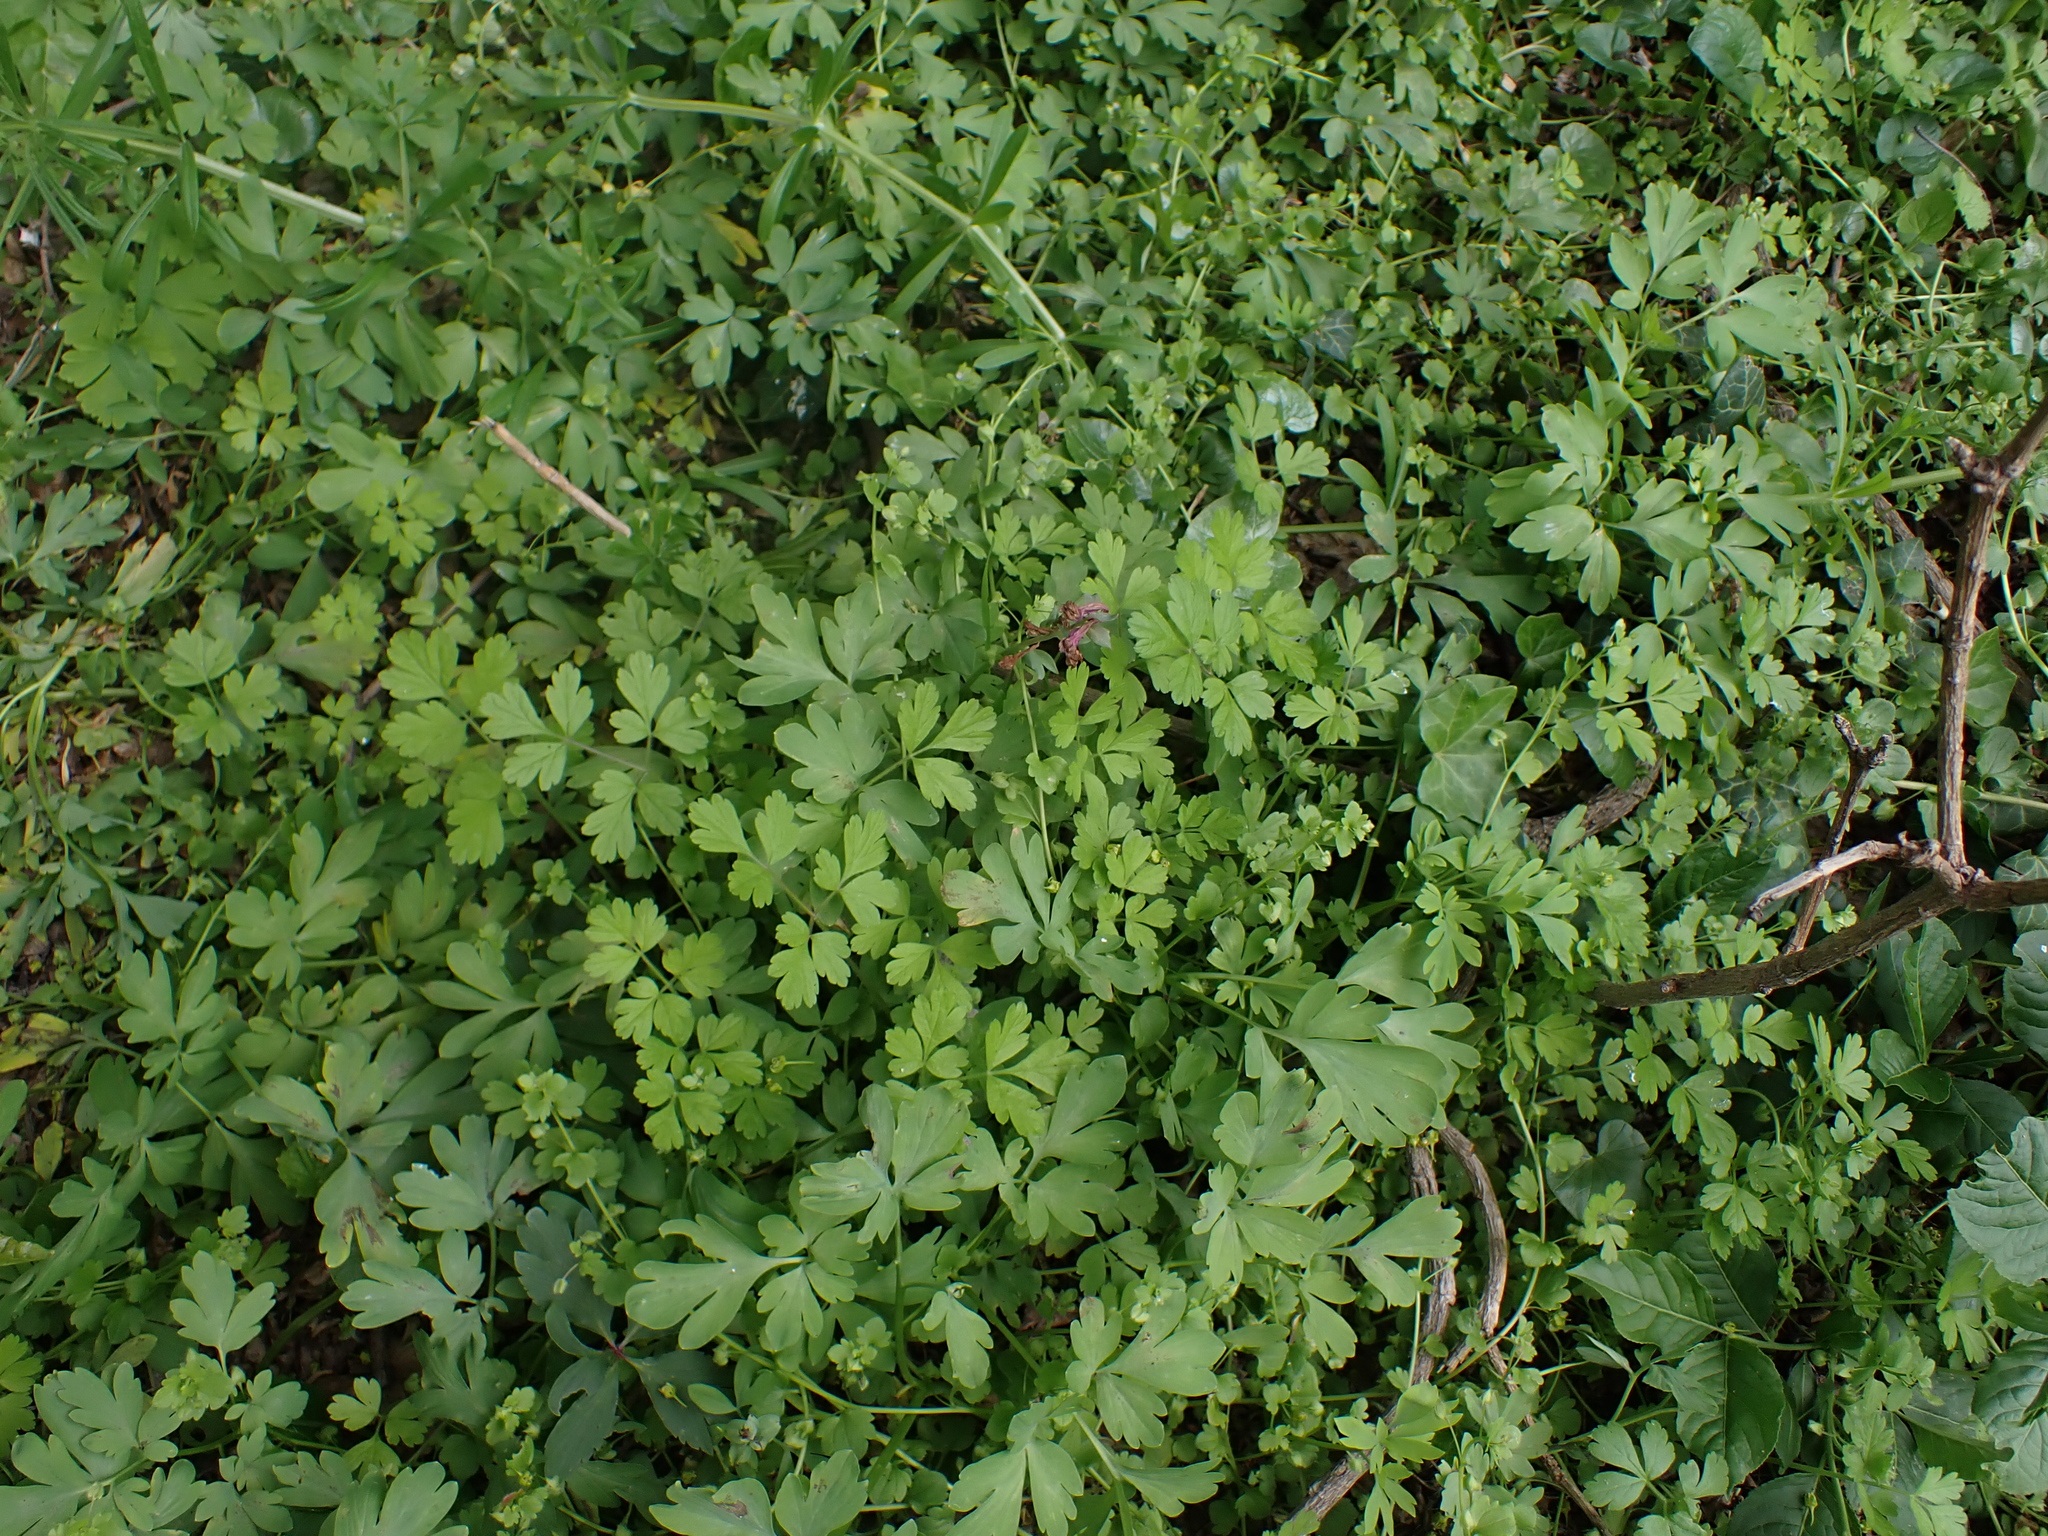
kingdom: Plantae
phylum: Tracheophyta
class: Magnoliopsida
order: Ranunculales
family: Papaveraceae
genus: Corydalis
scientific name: Corydalis cava
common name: Hollowroot
